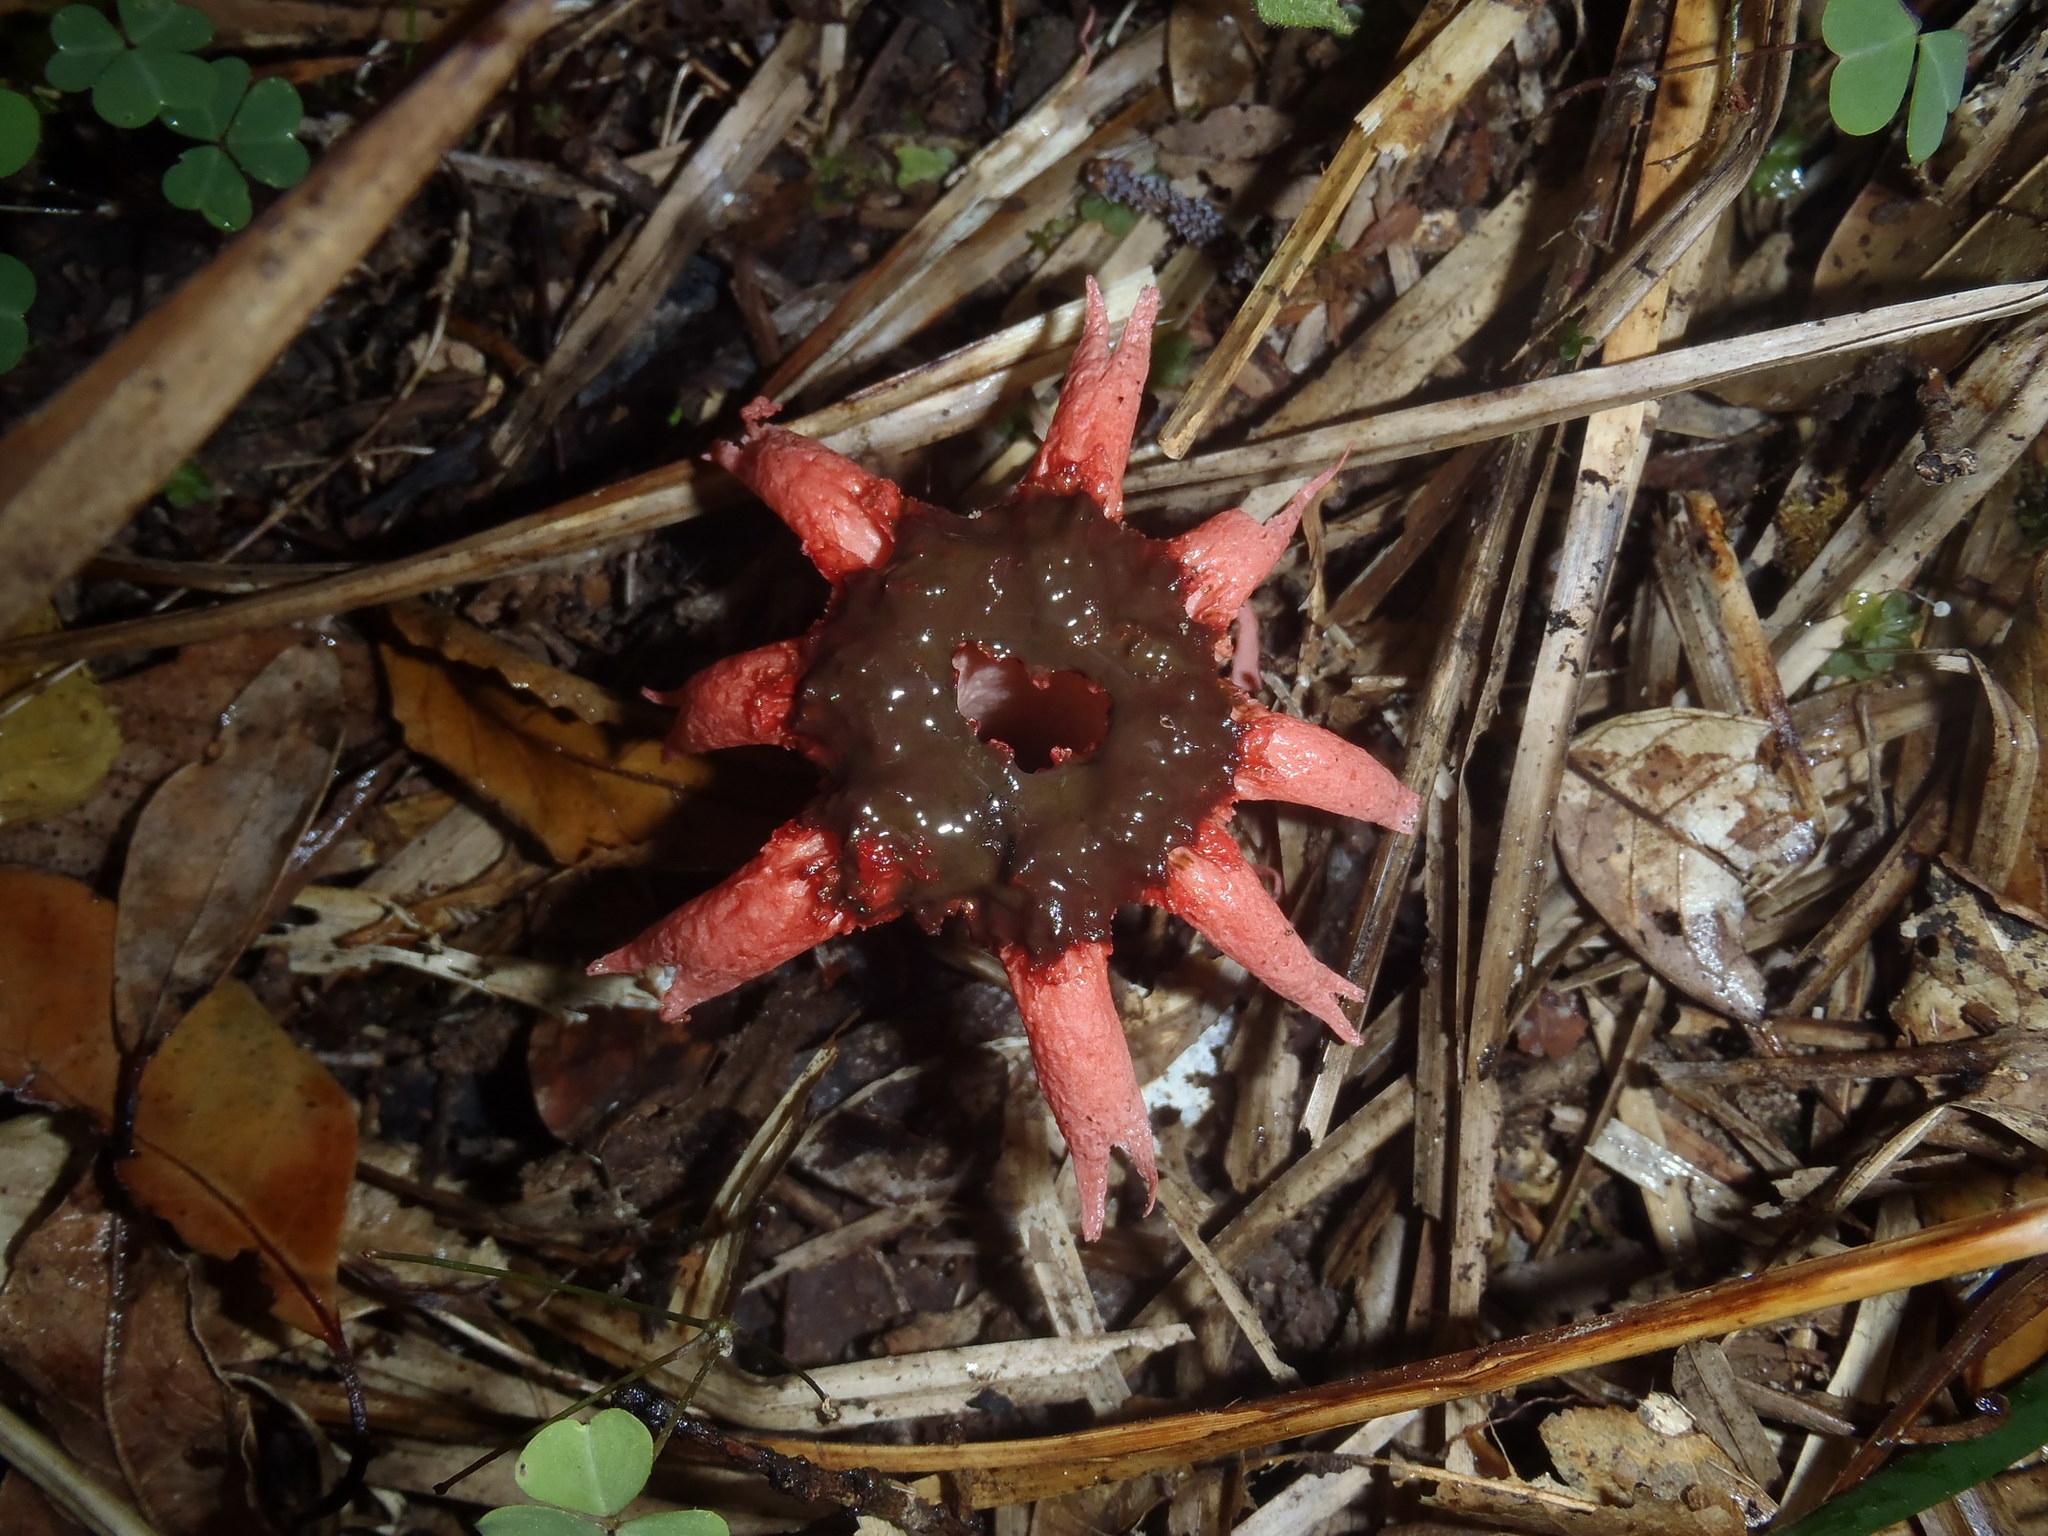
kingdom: Fungi
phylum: Basidiomycota
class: Agaricomycetes
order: Phallales
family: Phallaceae
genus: Aseroe
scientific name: Aseroe rubra
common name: Starfish fungus
